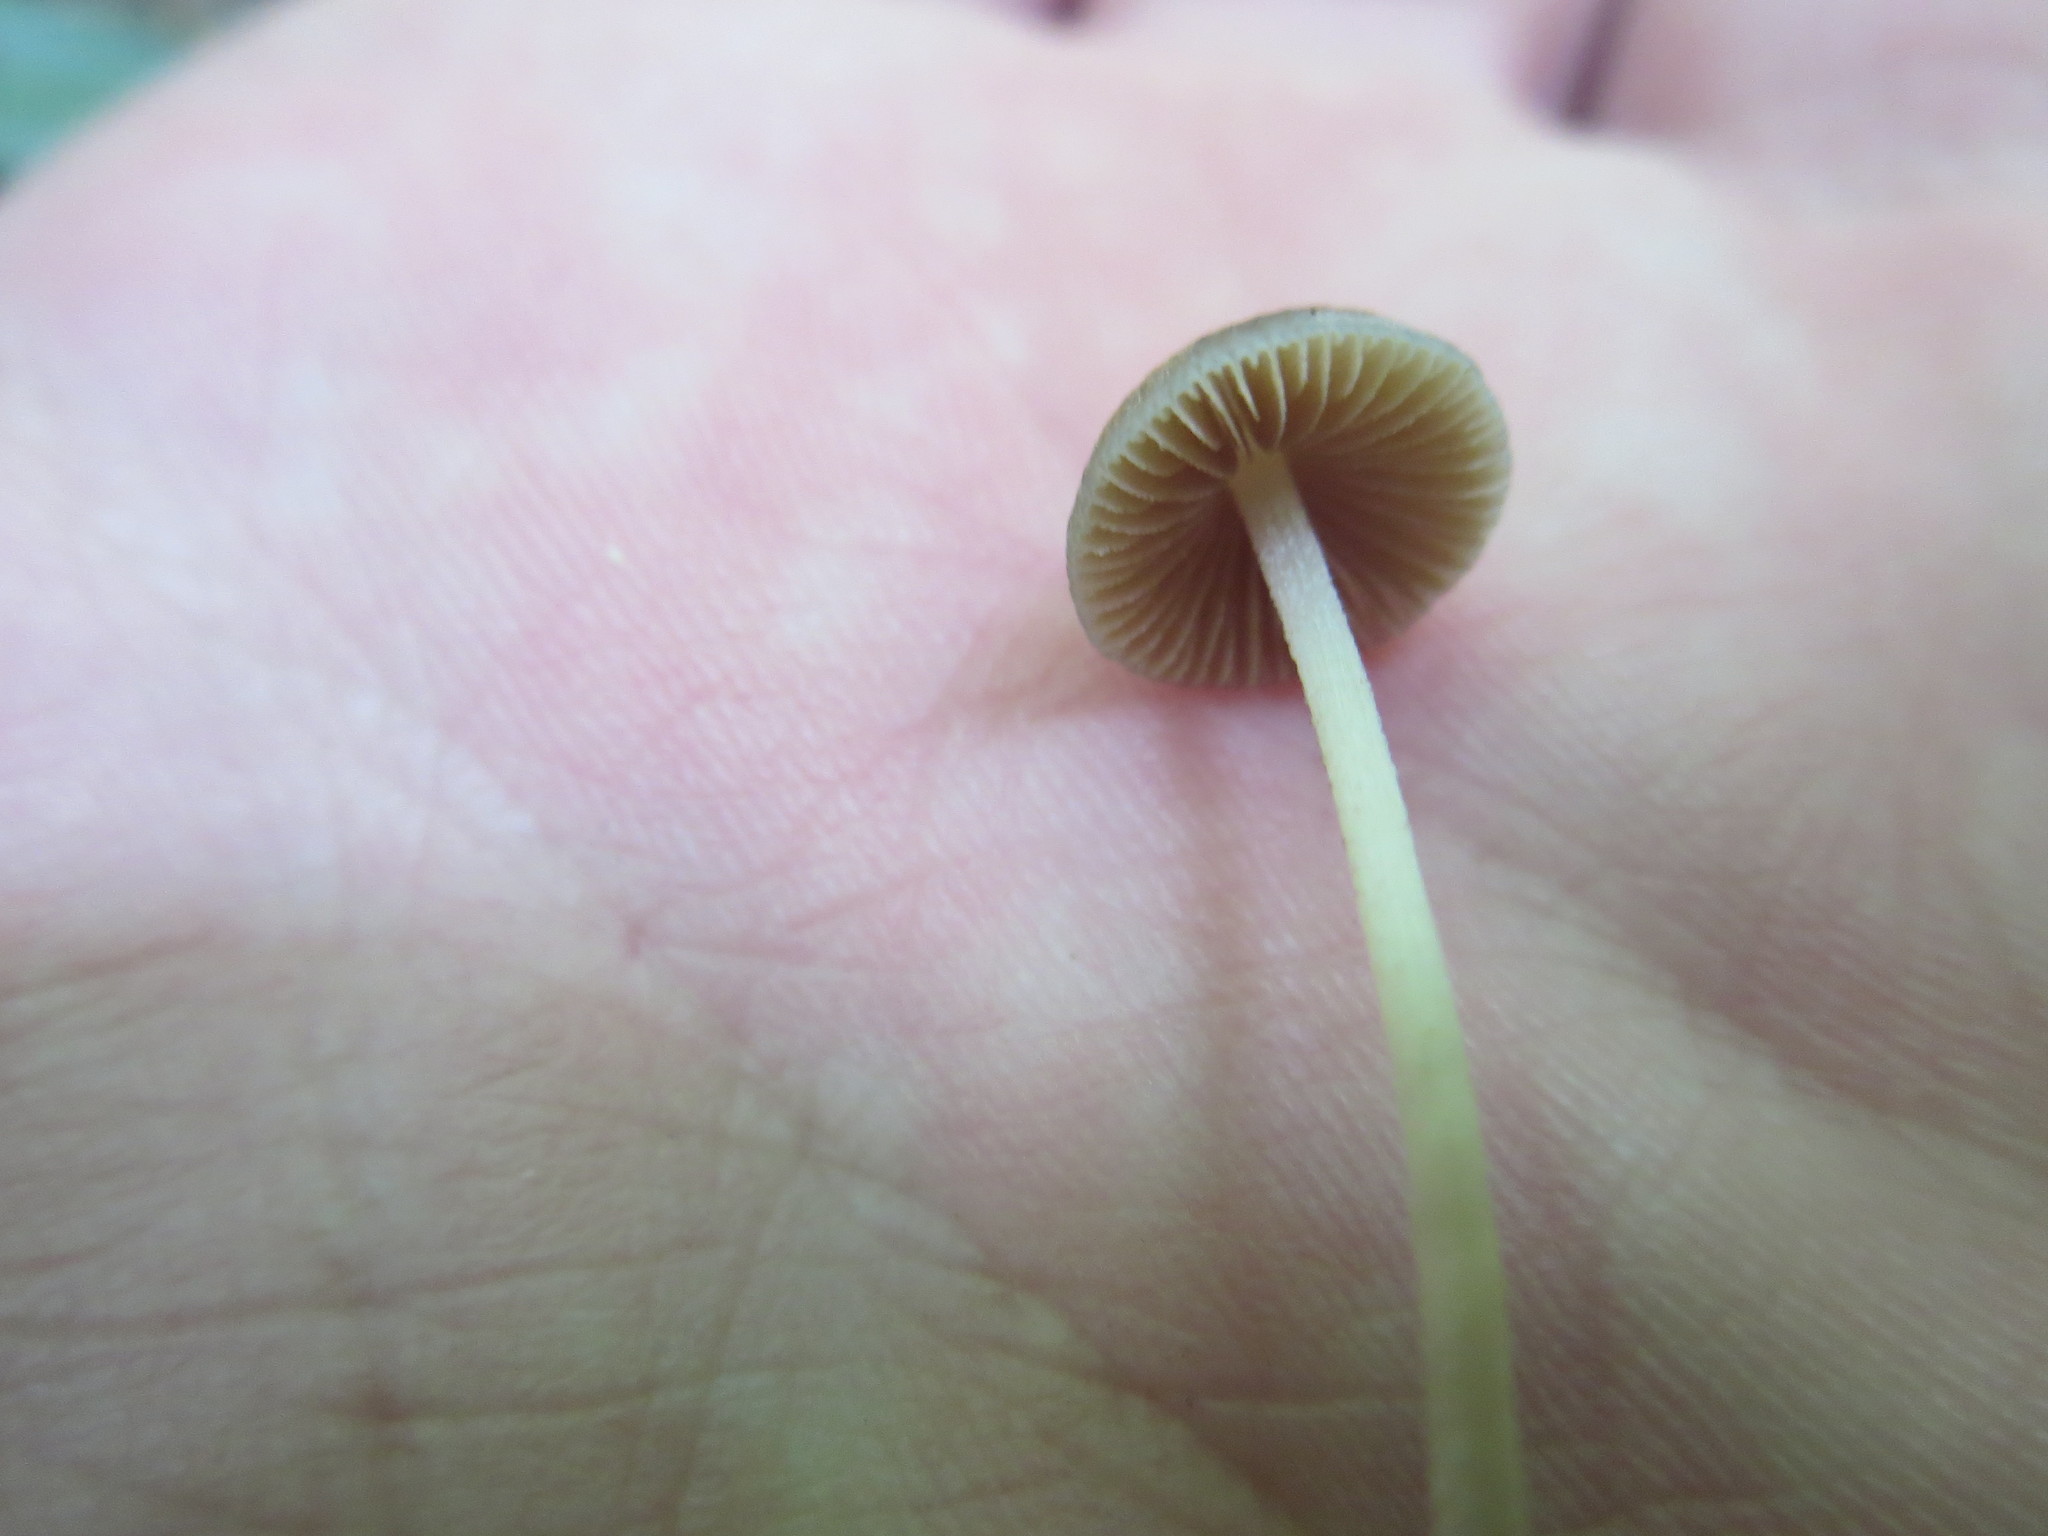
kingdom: Fungi
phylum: Basidiomycota
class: Agaricomycetes
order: Agaricales
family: Mycenaceae
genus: Mycena
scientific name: Mycena subcaerulea
